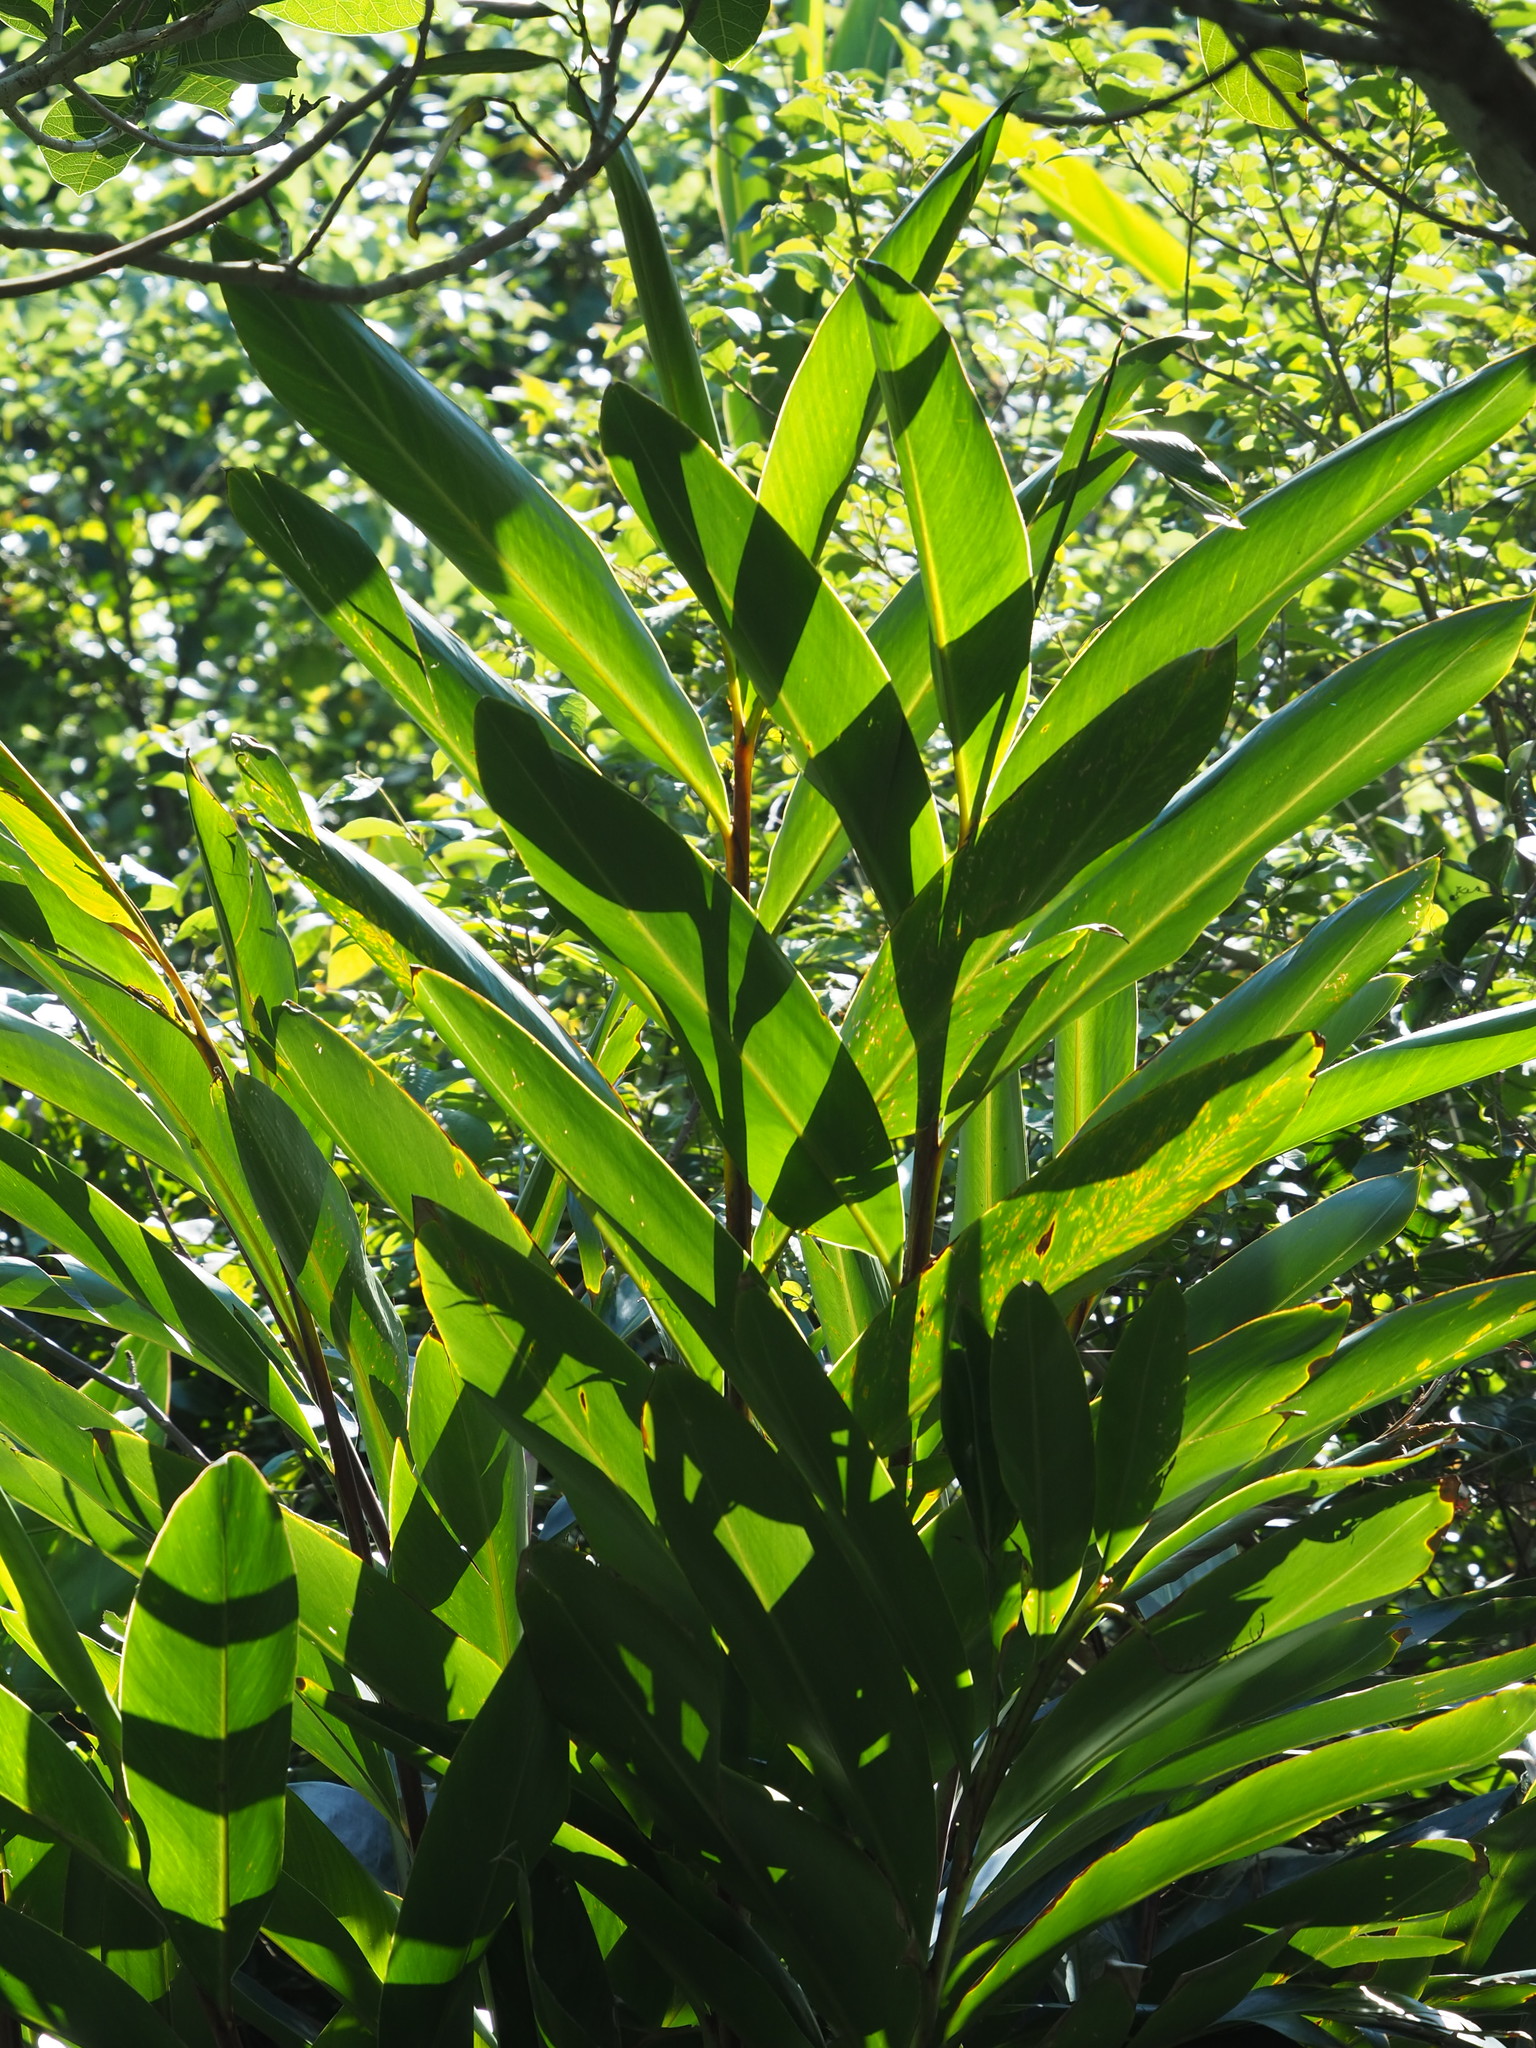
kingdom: Plantae
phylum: Tracheophyta
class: Liliopsida
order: Zingiberales
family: Zingiberaceae
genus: Alpinia
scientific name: Alpinia zerumbet
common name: Shellplant
